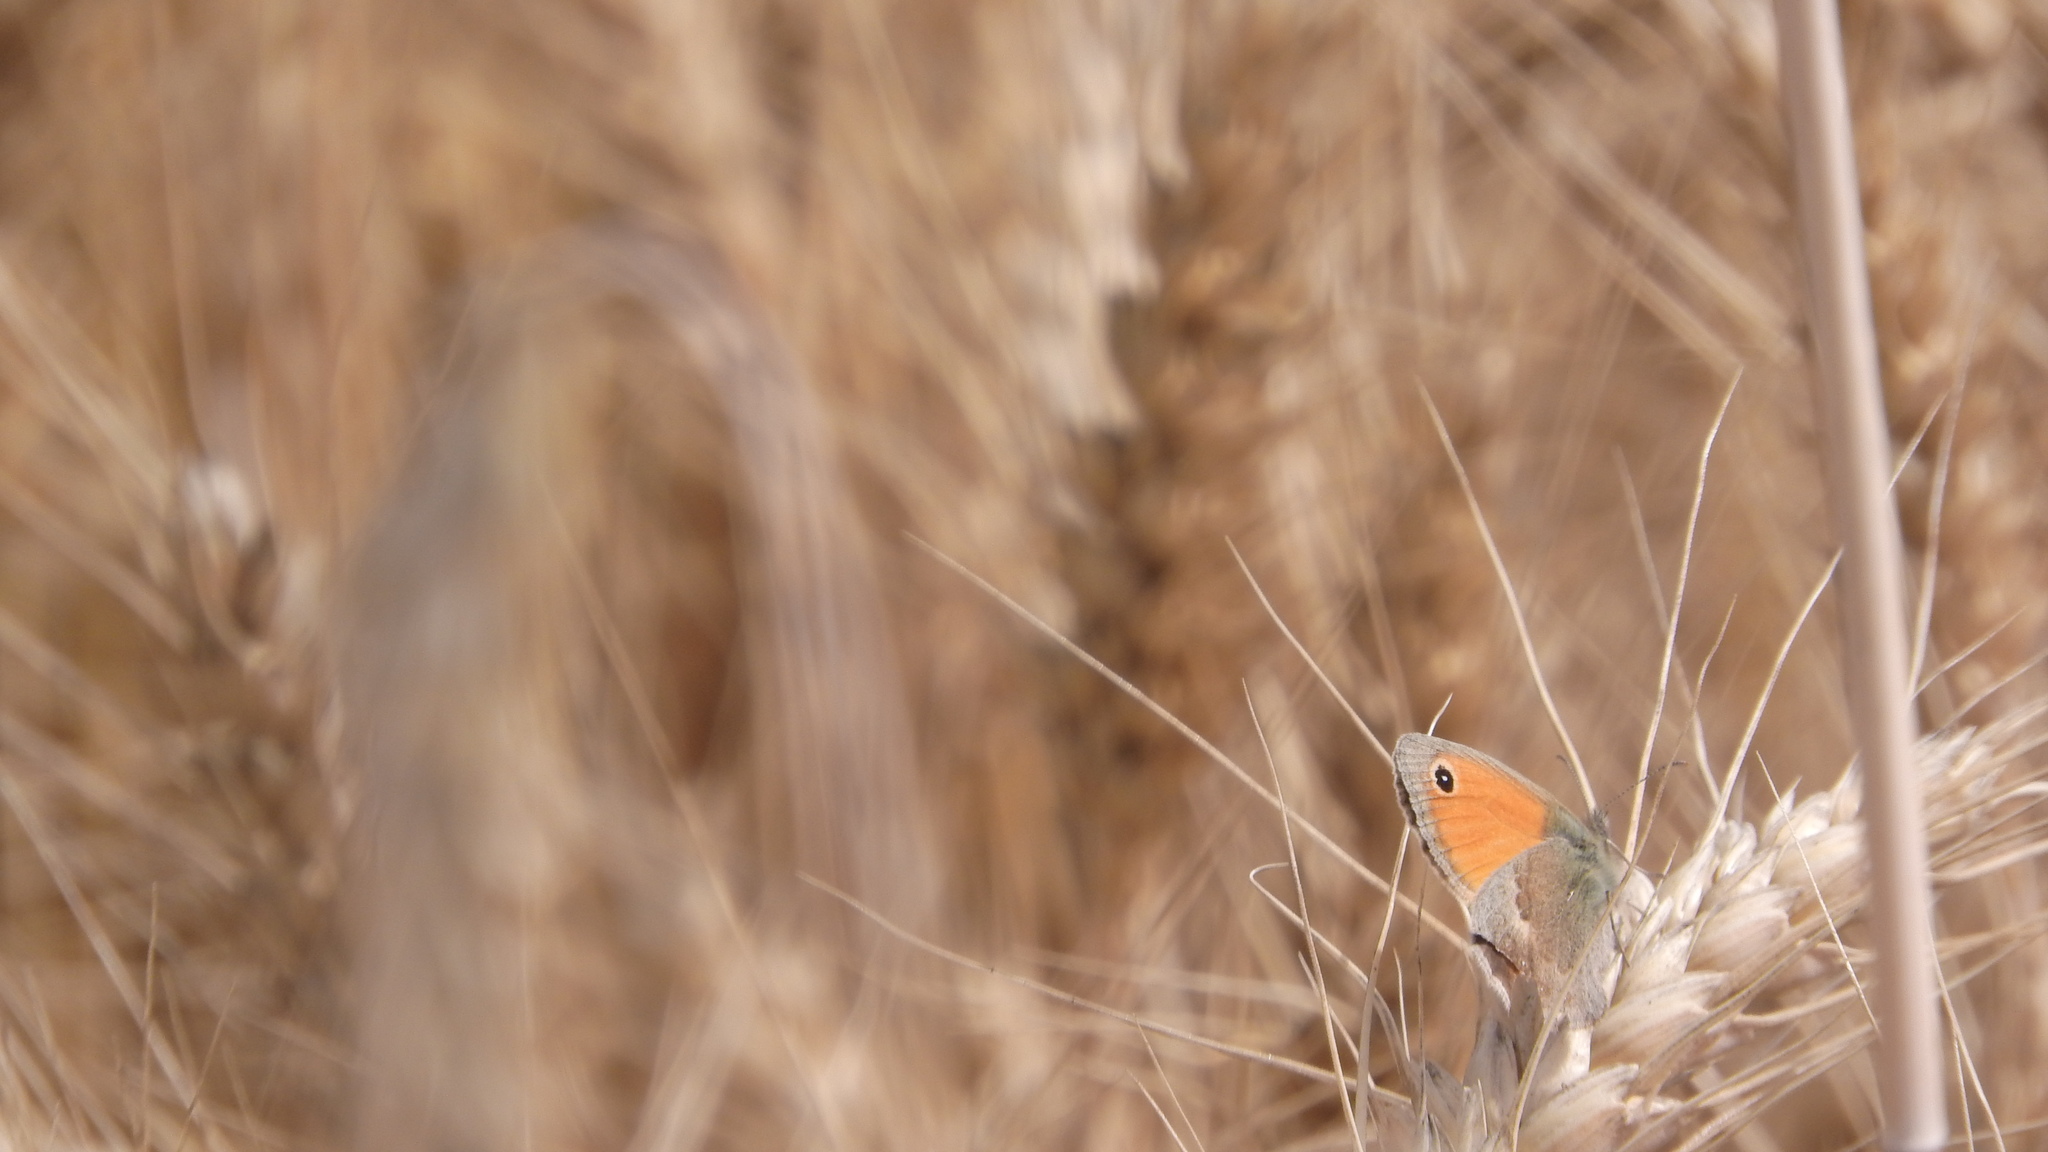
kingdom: Animalia
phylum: Arthropoda
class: Insecta
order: Lepidoptera
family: Nymphalidae
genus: Coenonympha
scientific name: Coenonympha pamphilus
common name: Small heath
